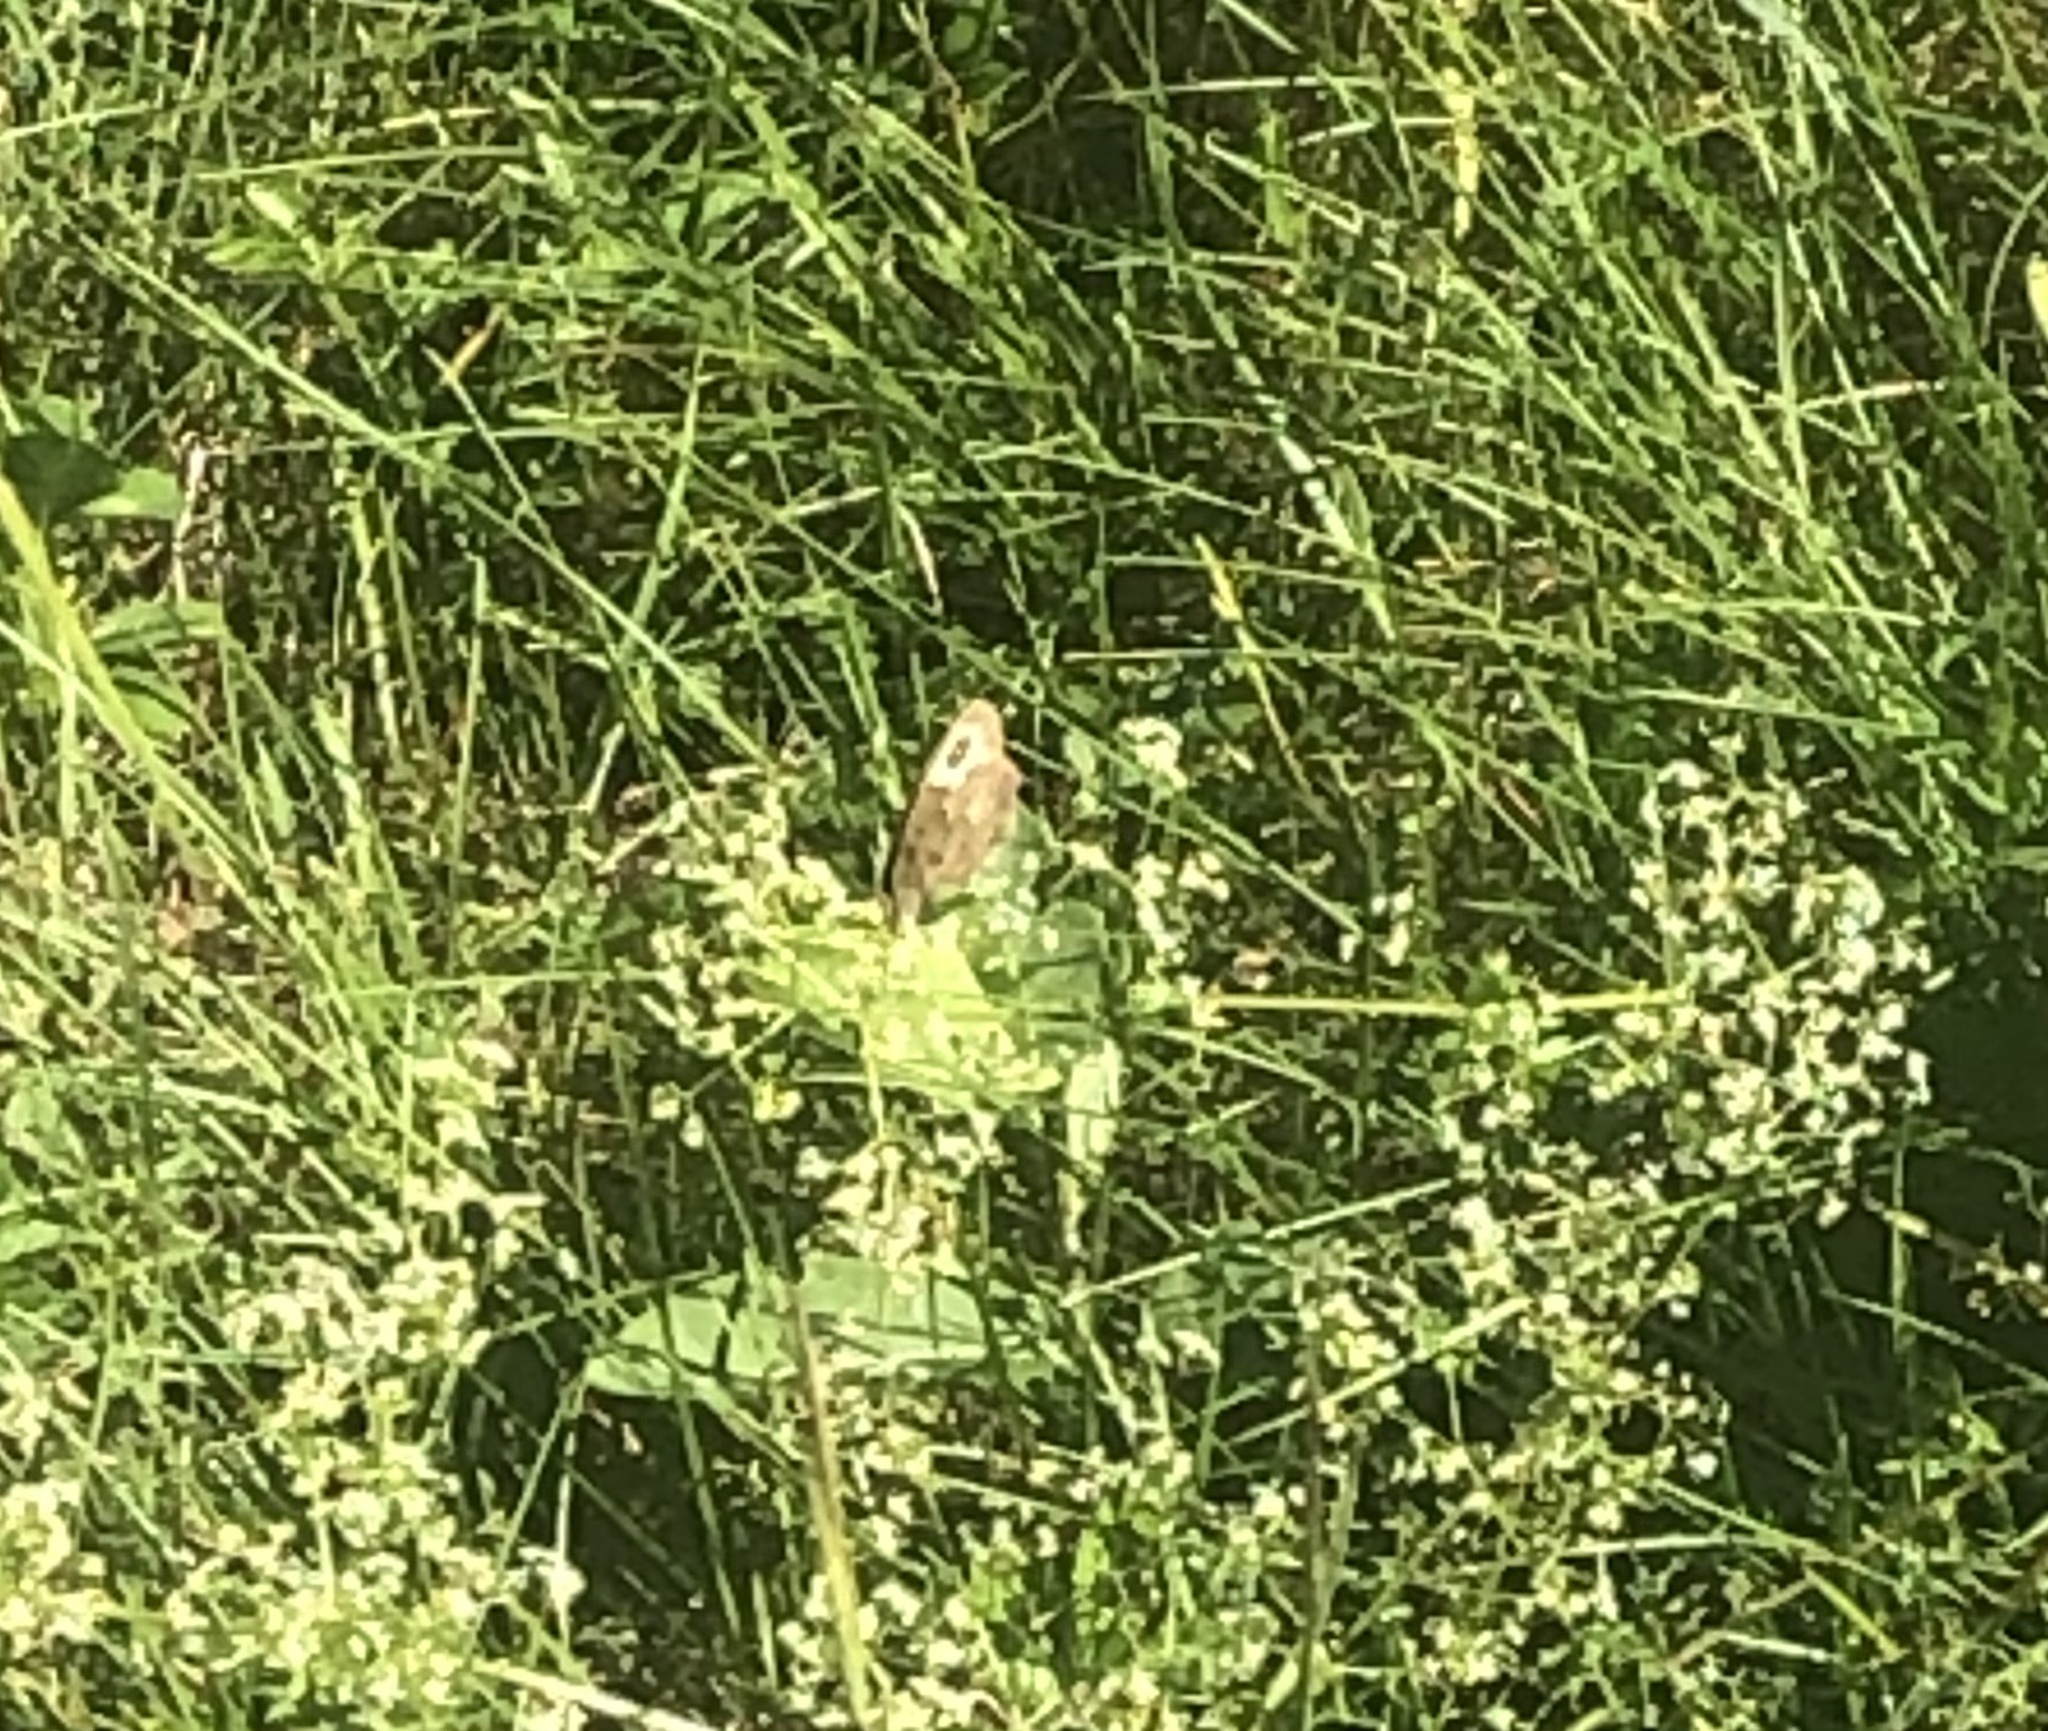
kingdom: Animalia
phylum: Arthropoda
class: Insecta
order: Lepidoptera
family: Nymphalidae
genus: Cercyonis
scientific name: Cercyonis pegala
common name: Common wood-nymph
